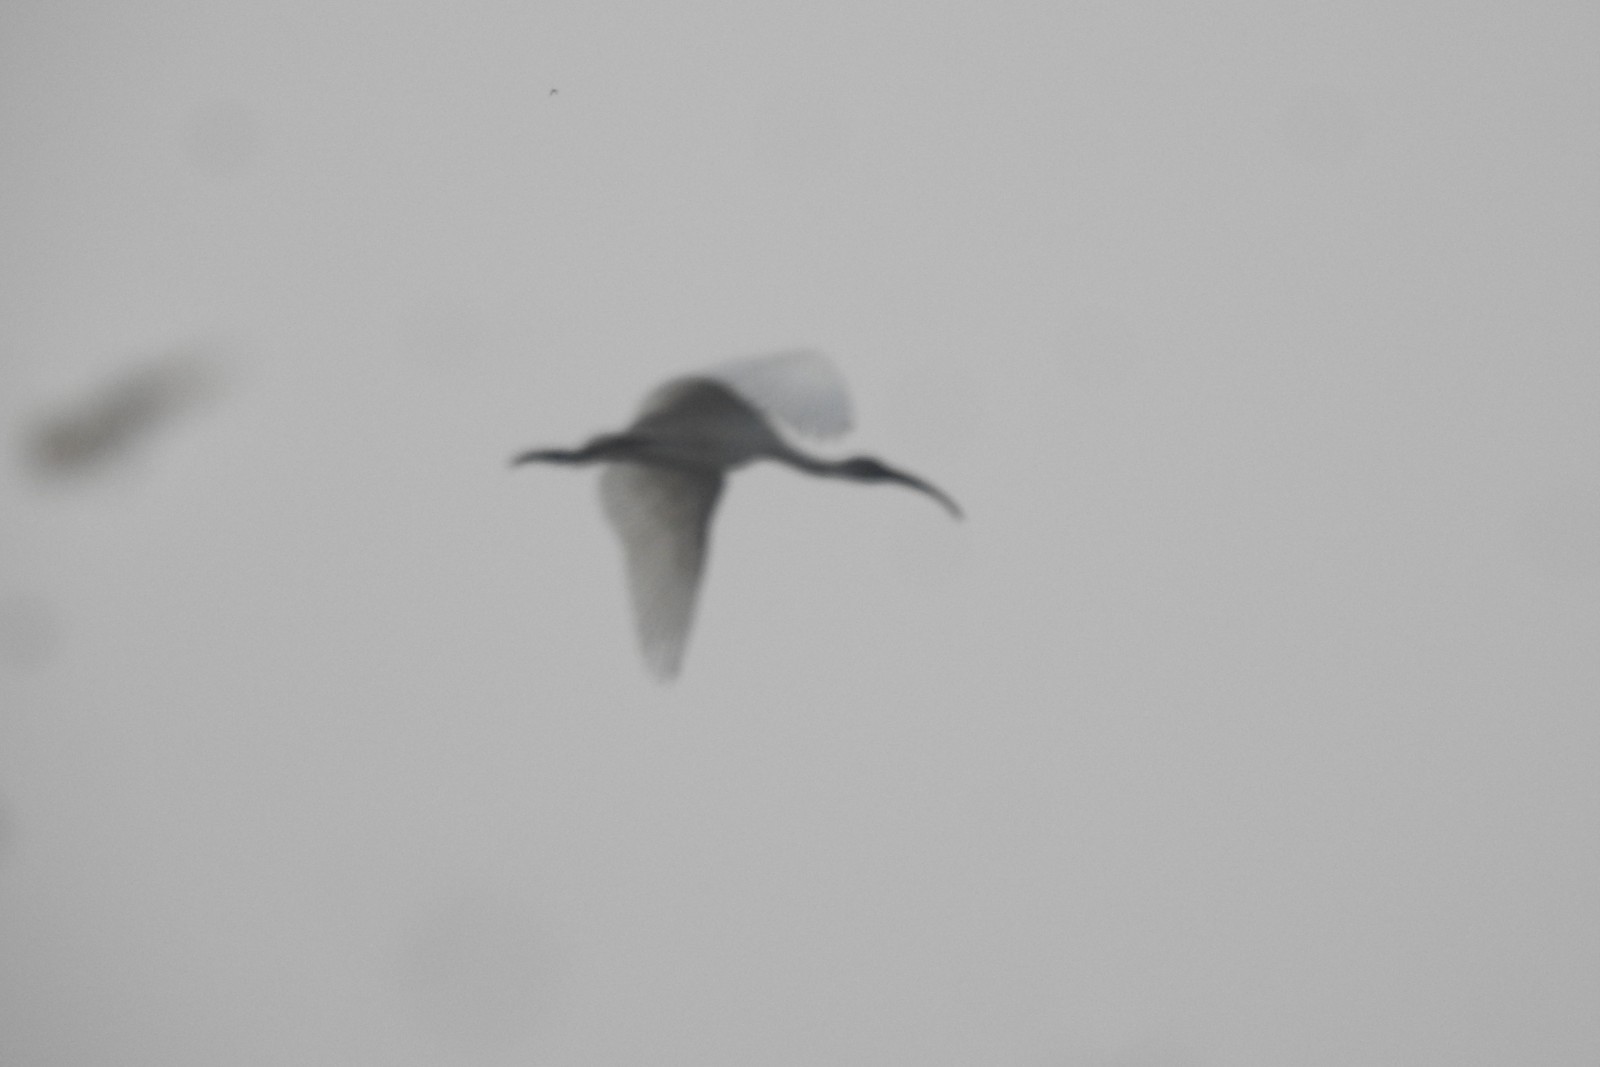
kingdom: Animalia
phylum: Chordata
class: Aves
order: Pelecaniformes
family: Threskiornithidae
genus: Threskiornis
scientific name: Threskiornis melanocephalus
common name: Black-headed ibis
